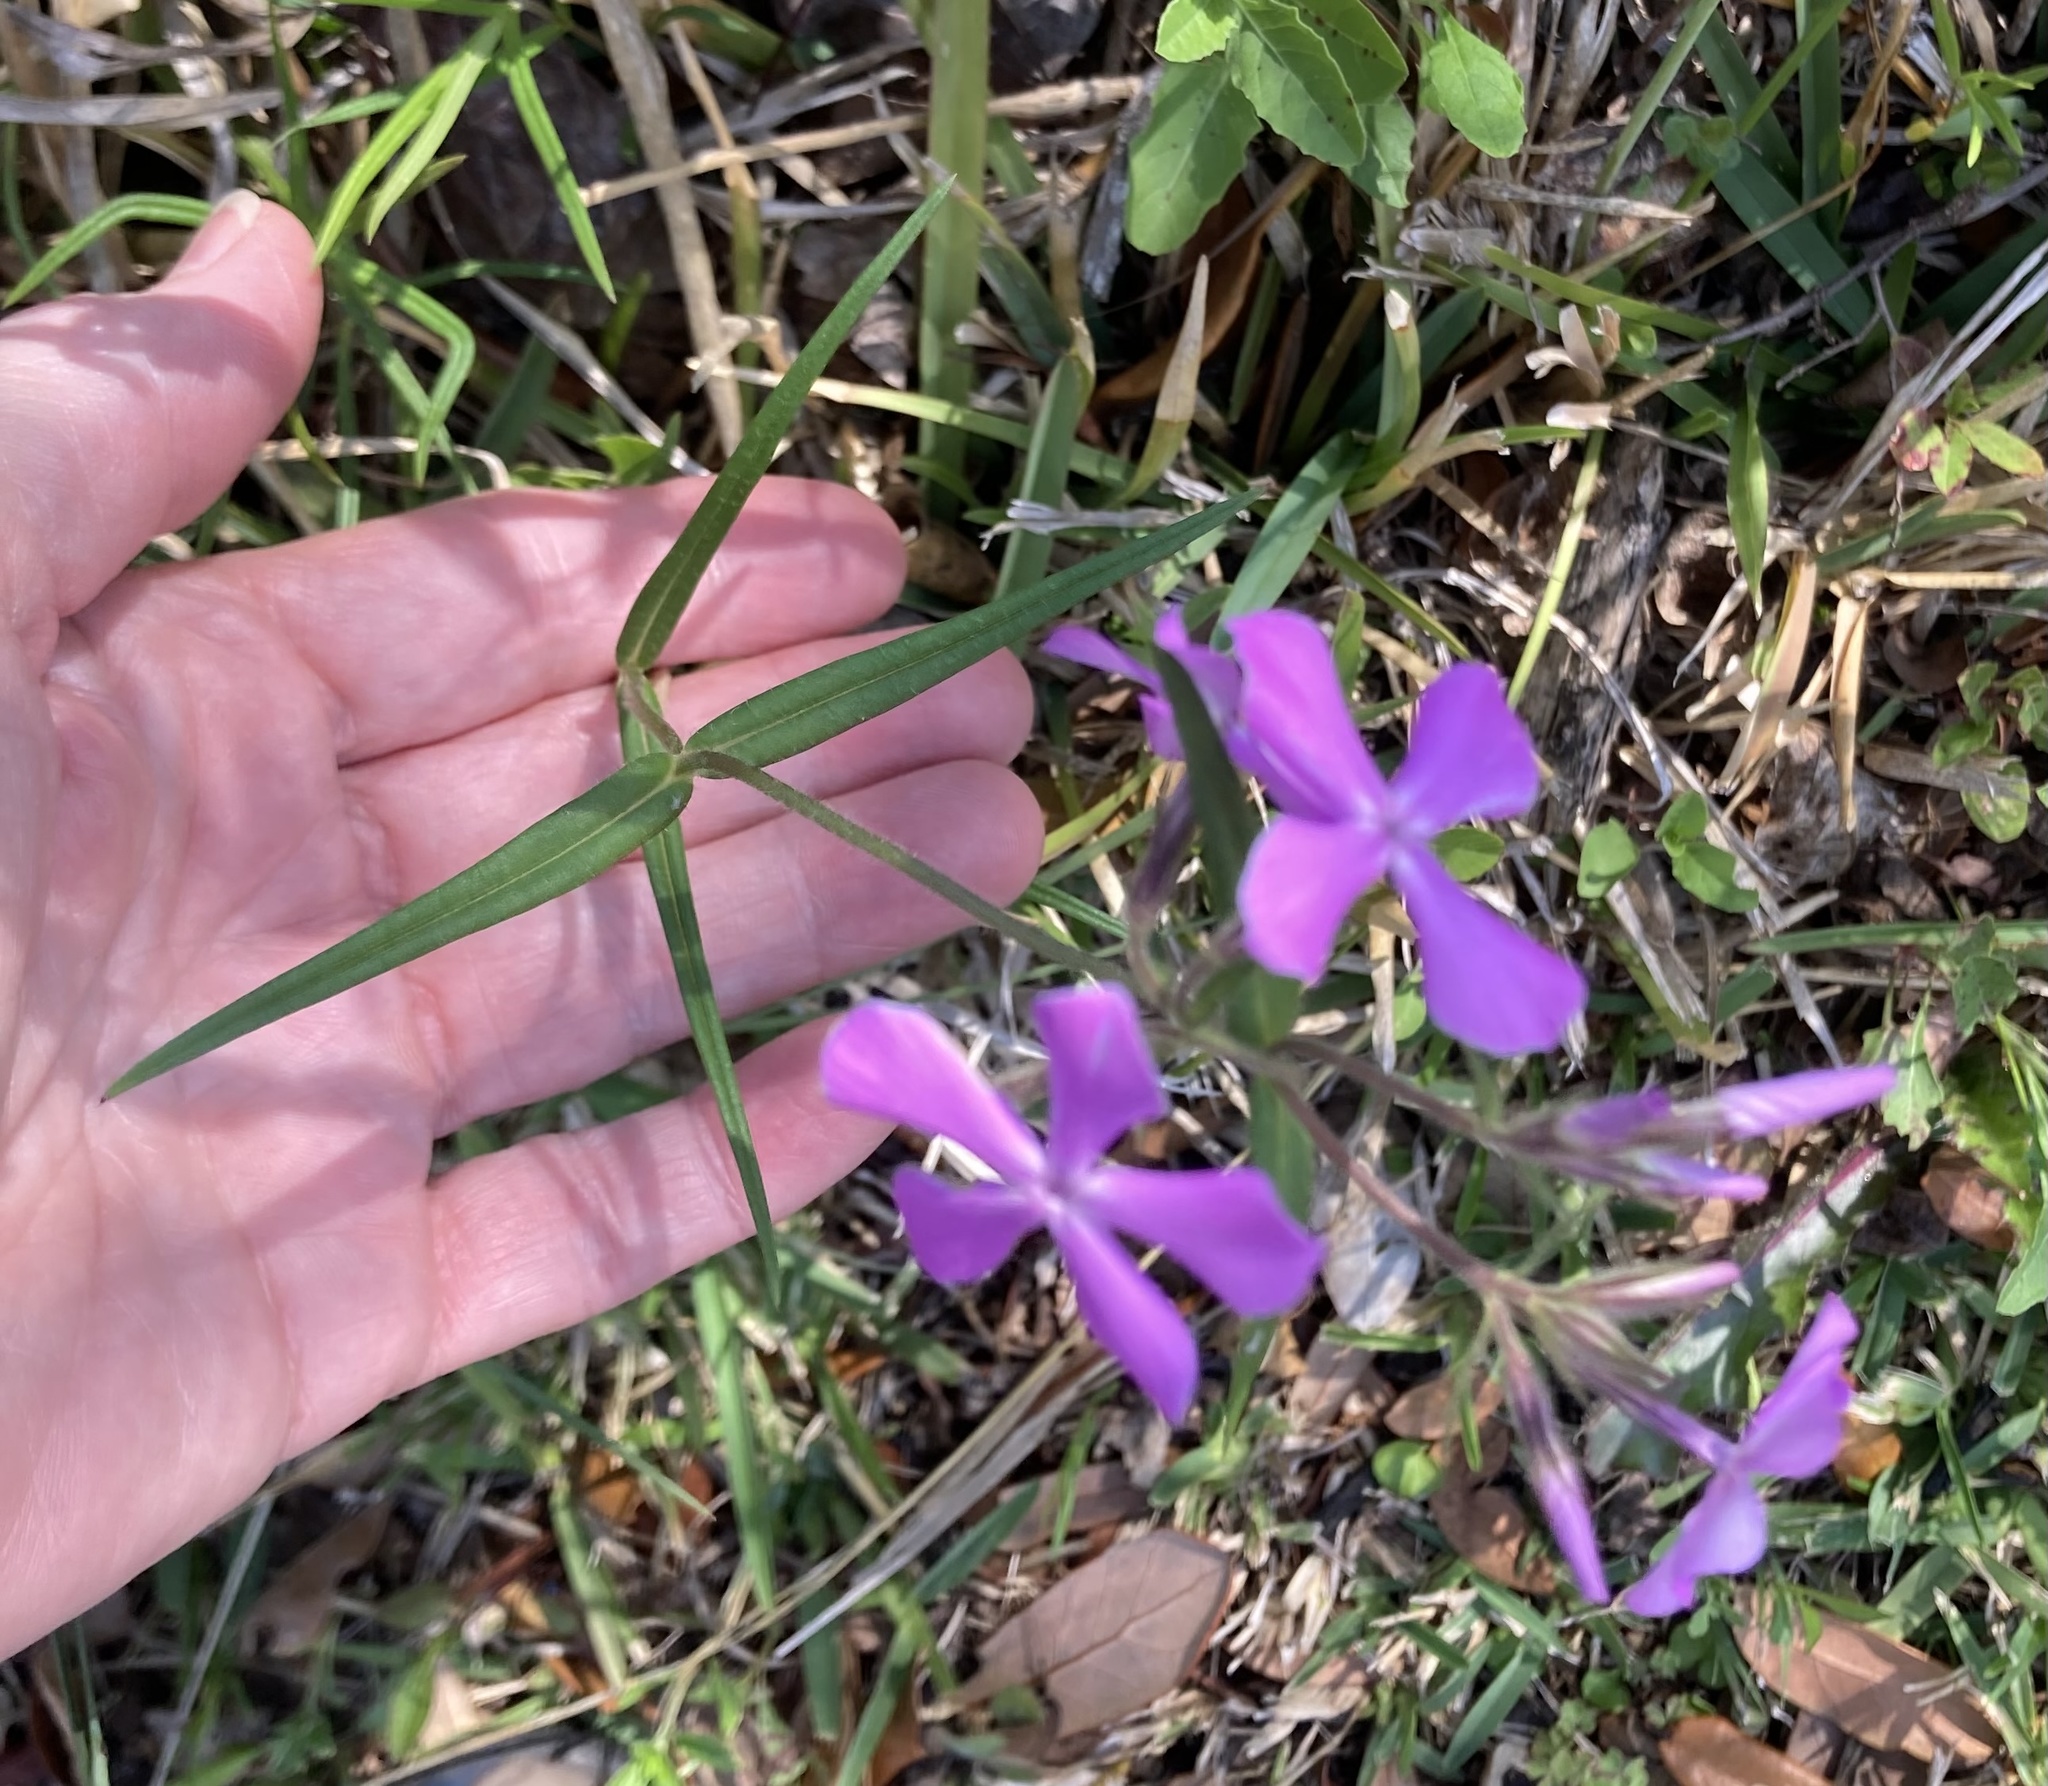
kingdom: Plantae
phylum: Tracheophyta
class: Magnoliopsida
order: Ericales
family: Polemoniaceae
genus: Phlox
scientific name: Phlox pilosa
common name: Prairie phlox
